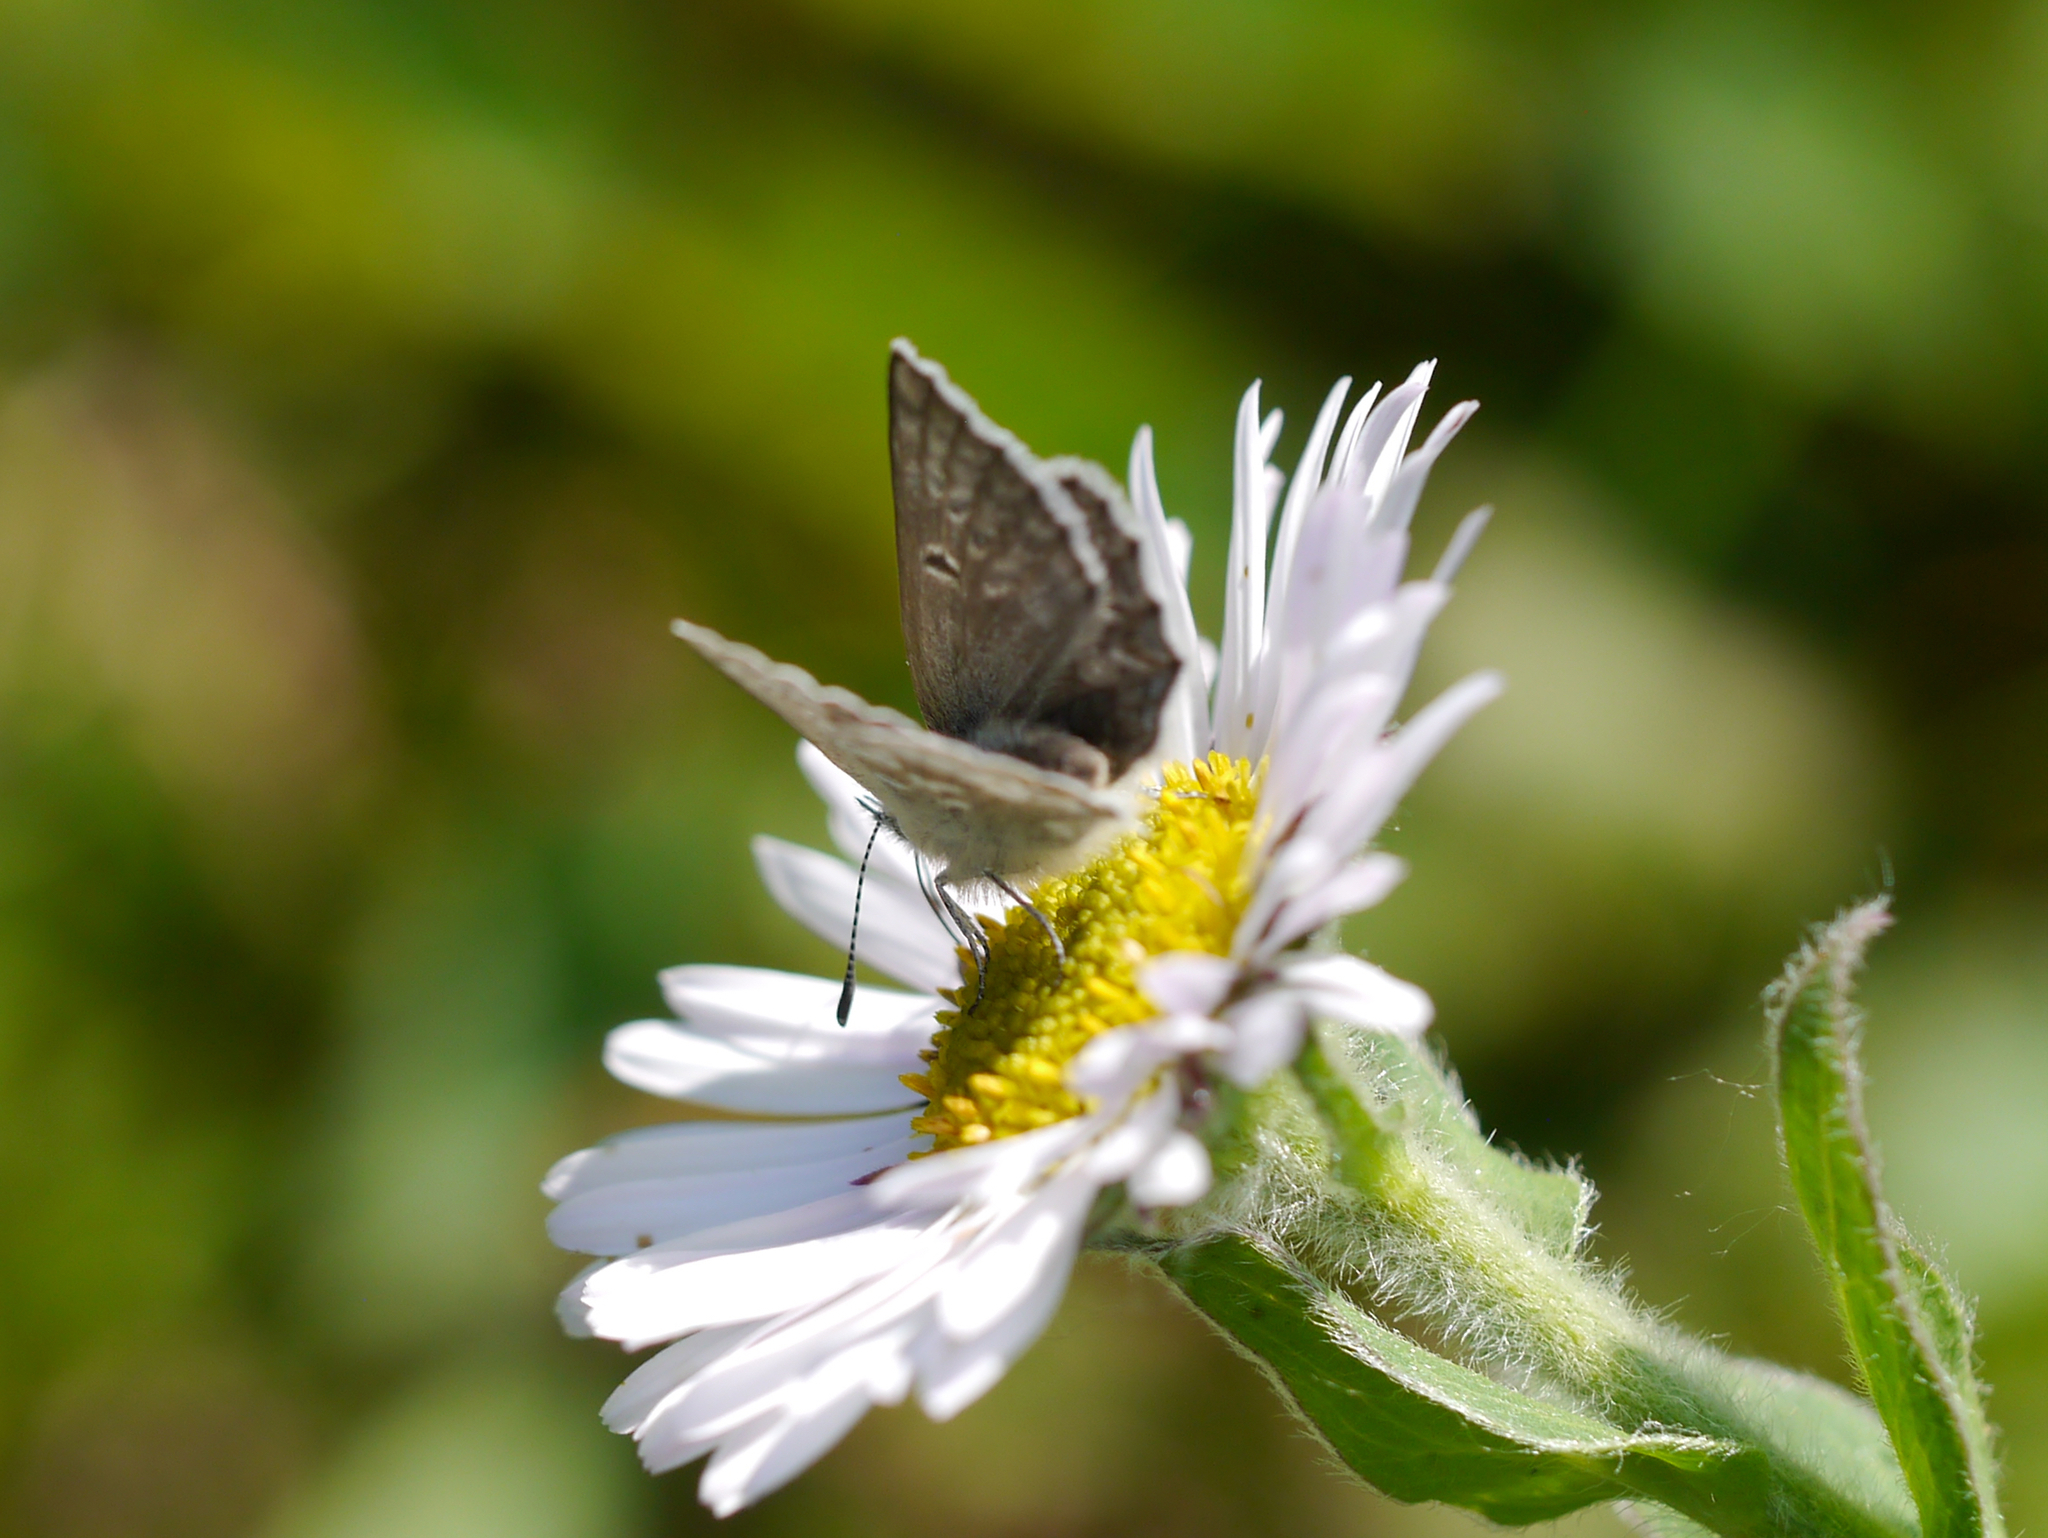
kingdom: Animalia
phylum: Arthropoda
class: Insecta
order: Lepidoptera
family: Lycaenidae
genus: Agriades
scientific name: Agriades glandon
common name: Glandon blue
